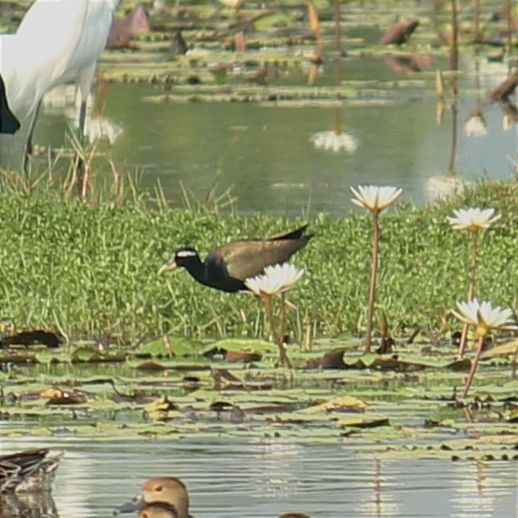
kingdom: Animalia
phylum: Chordata
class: Aves
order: Charadriiformes
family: Jacanidae
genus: Metopidius
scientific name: Metopidius indicus
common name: Bronze-winged jacana
